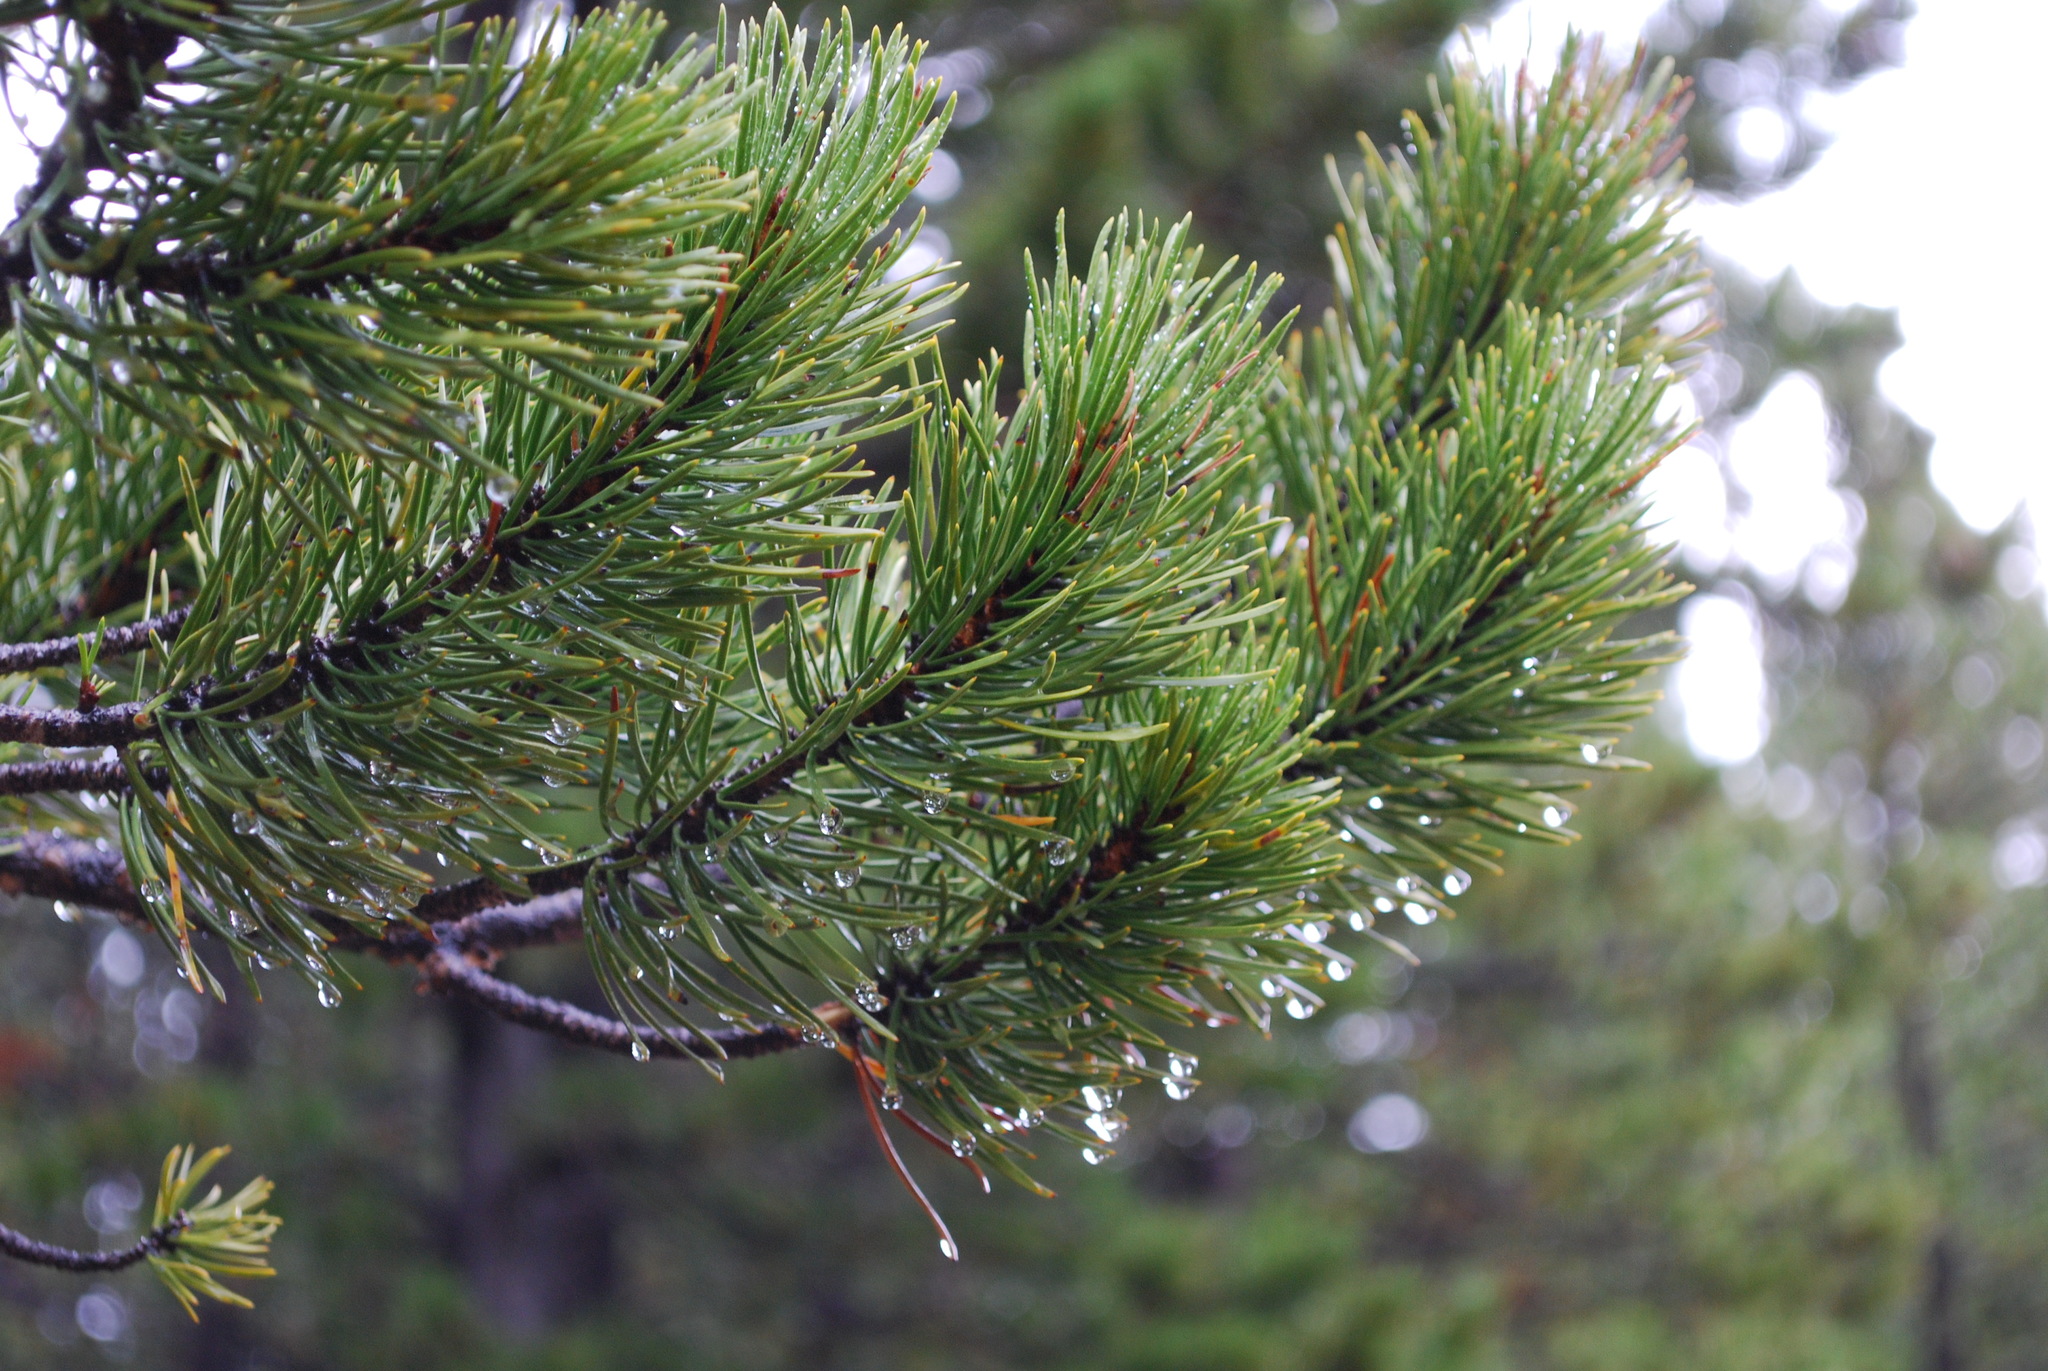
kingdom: Plantae
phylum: Tracheophyta
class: Pinopsida
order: Pinales
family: Pinaceae
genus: Pinus
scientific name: Pinus contorta
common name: Lodgepole pine
